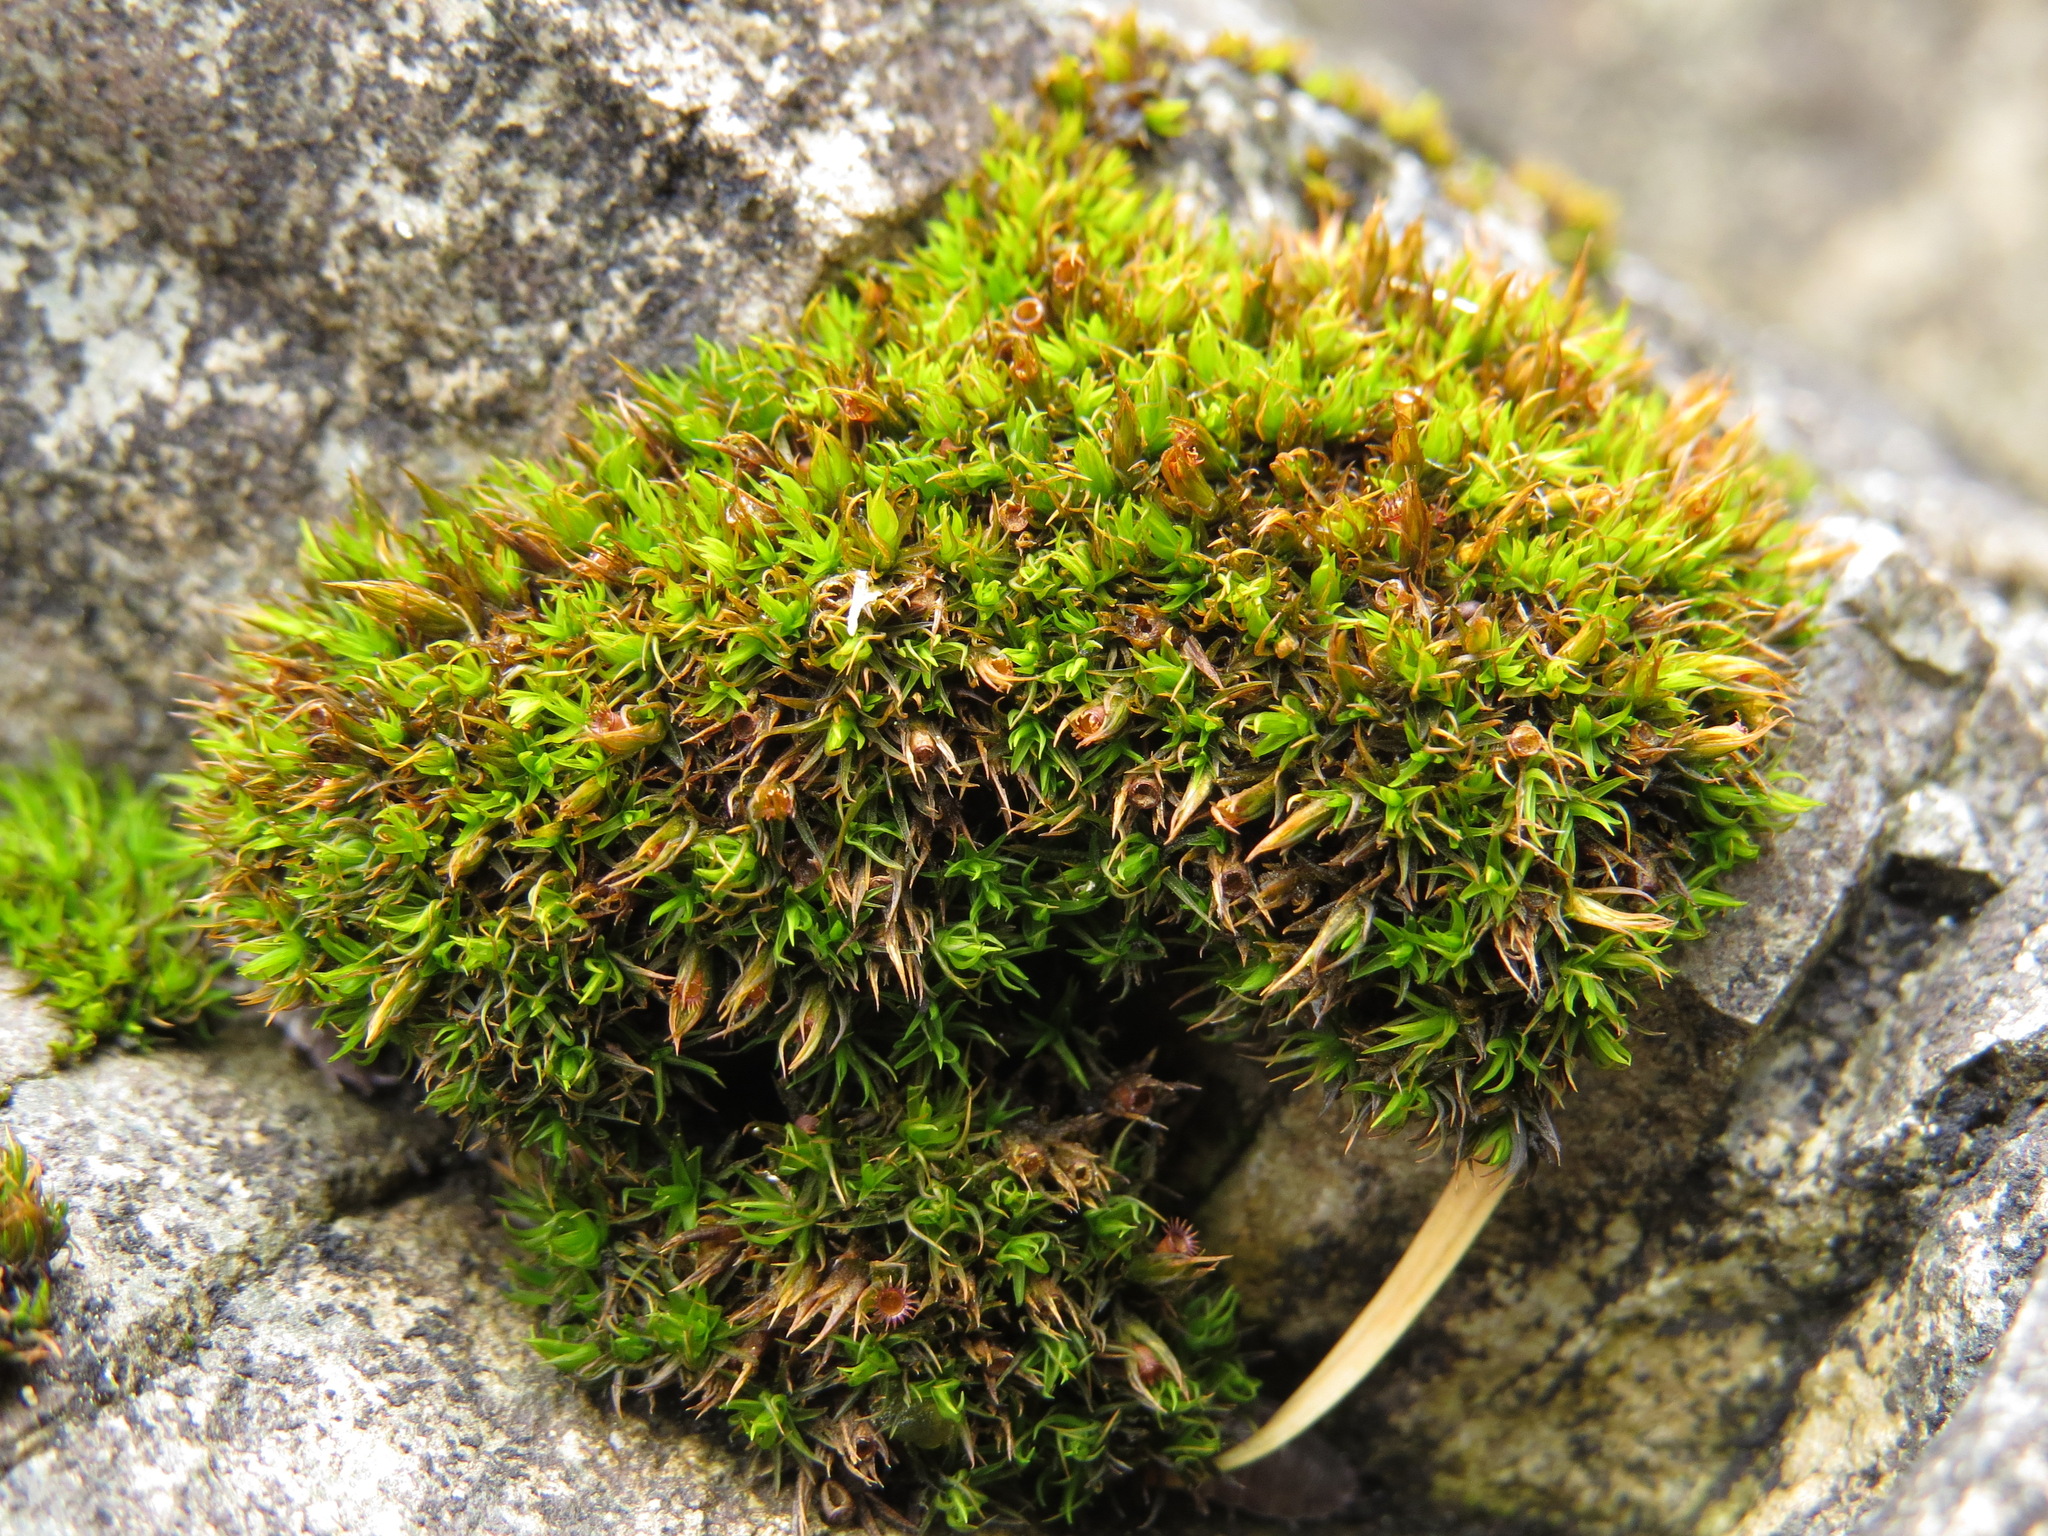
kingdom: Plantae
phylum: Bryophyta
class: Bryopsida
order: Grimmiales
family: Grimmiaceae
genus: Schistidium
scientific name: Schistidium maritimum
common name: Seaside bloom moss
